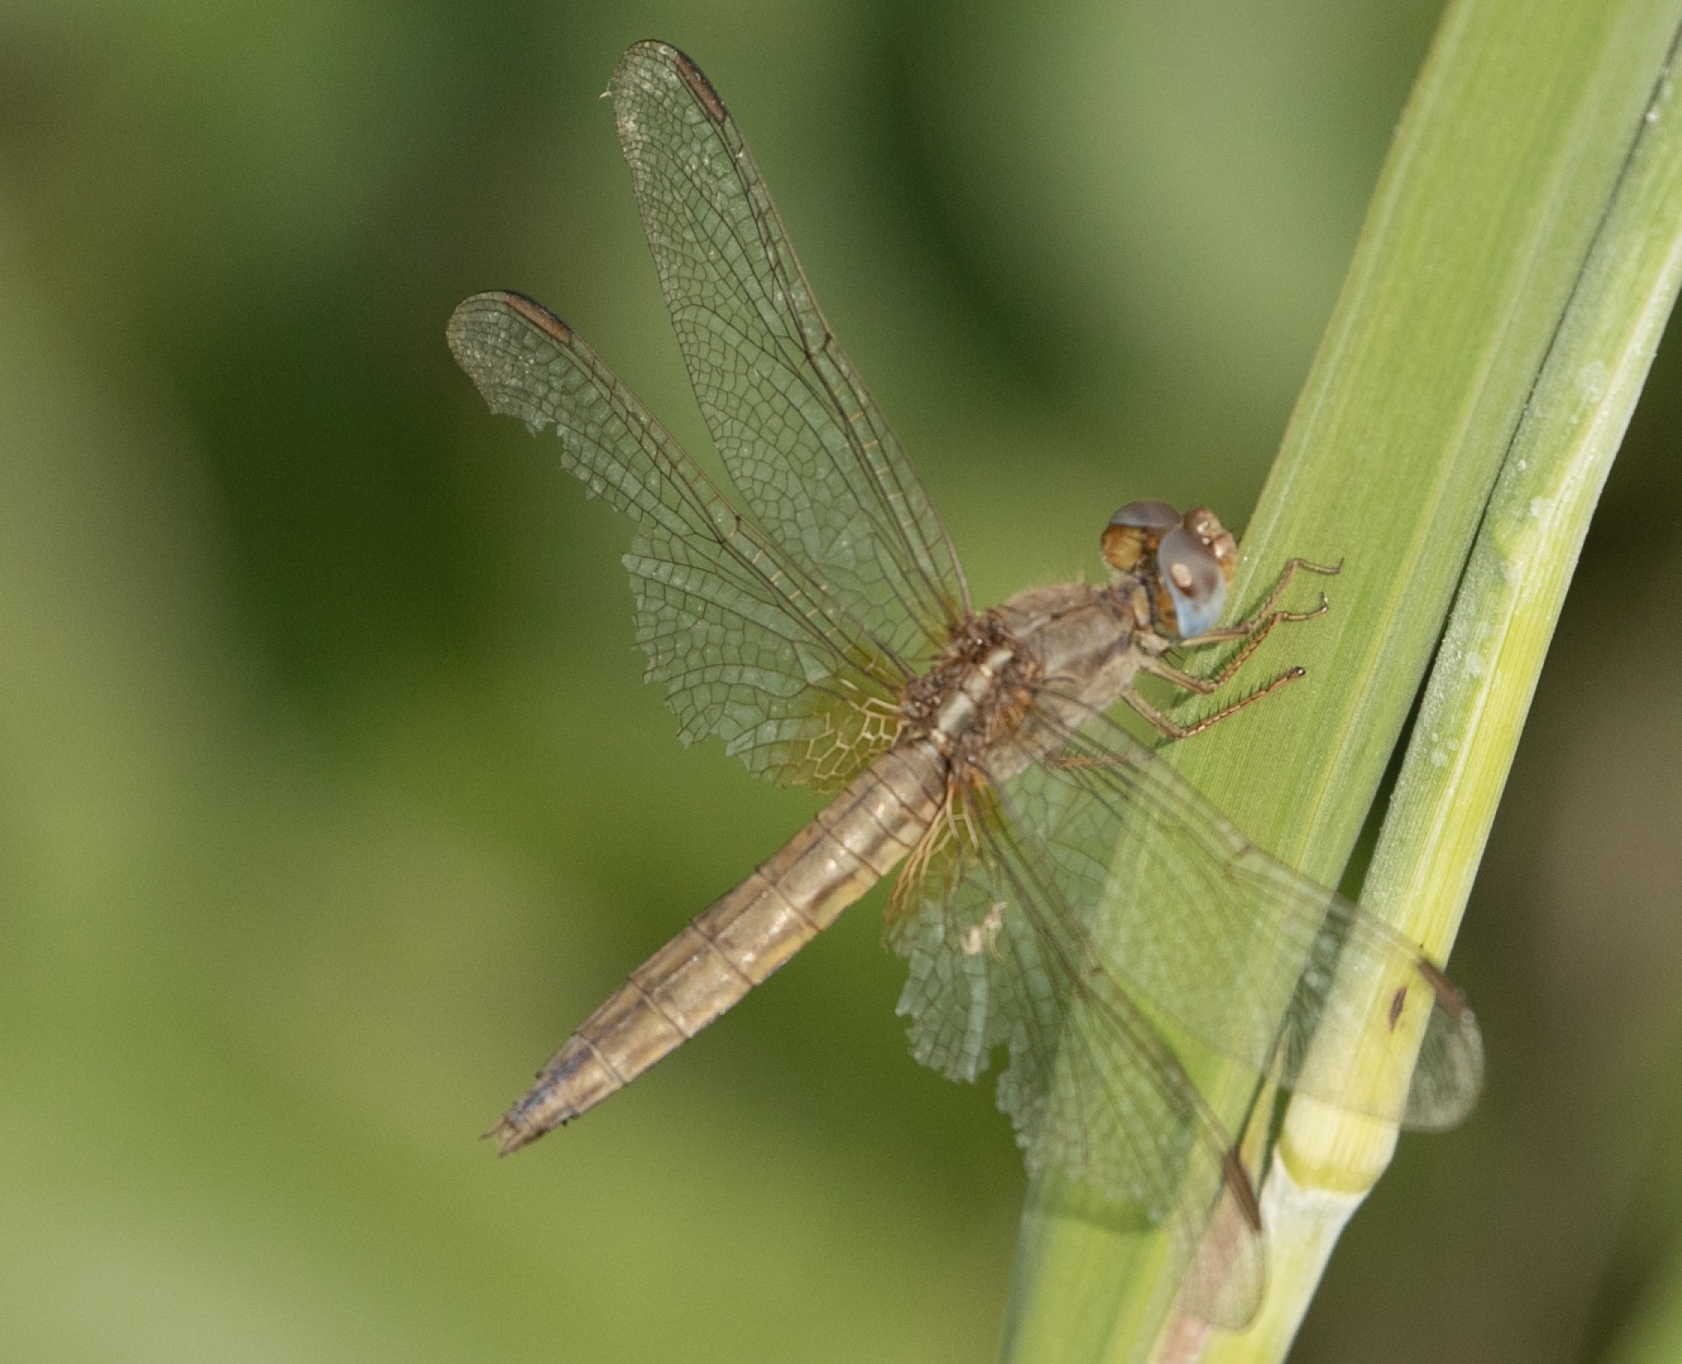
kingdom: Animalia
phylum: Arthropoda
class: Insecta
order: Odonata
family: Libellulidae
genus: Crocothemis
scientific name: Crocothemis erythraea
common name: Scarlet dragonfly
